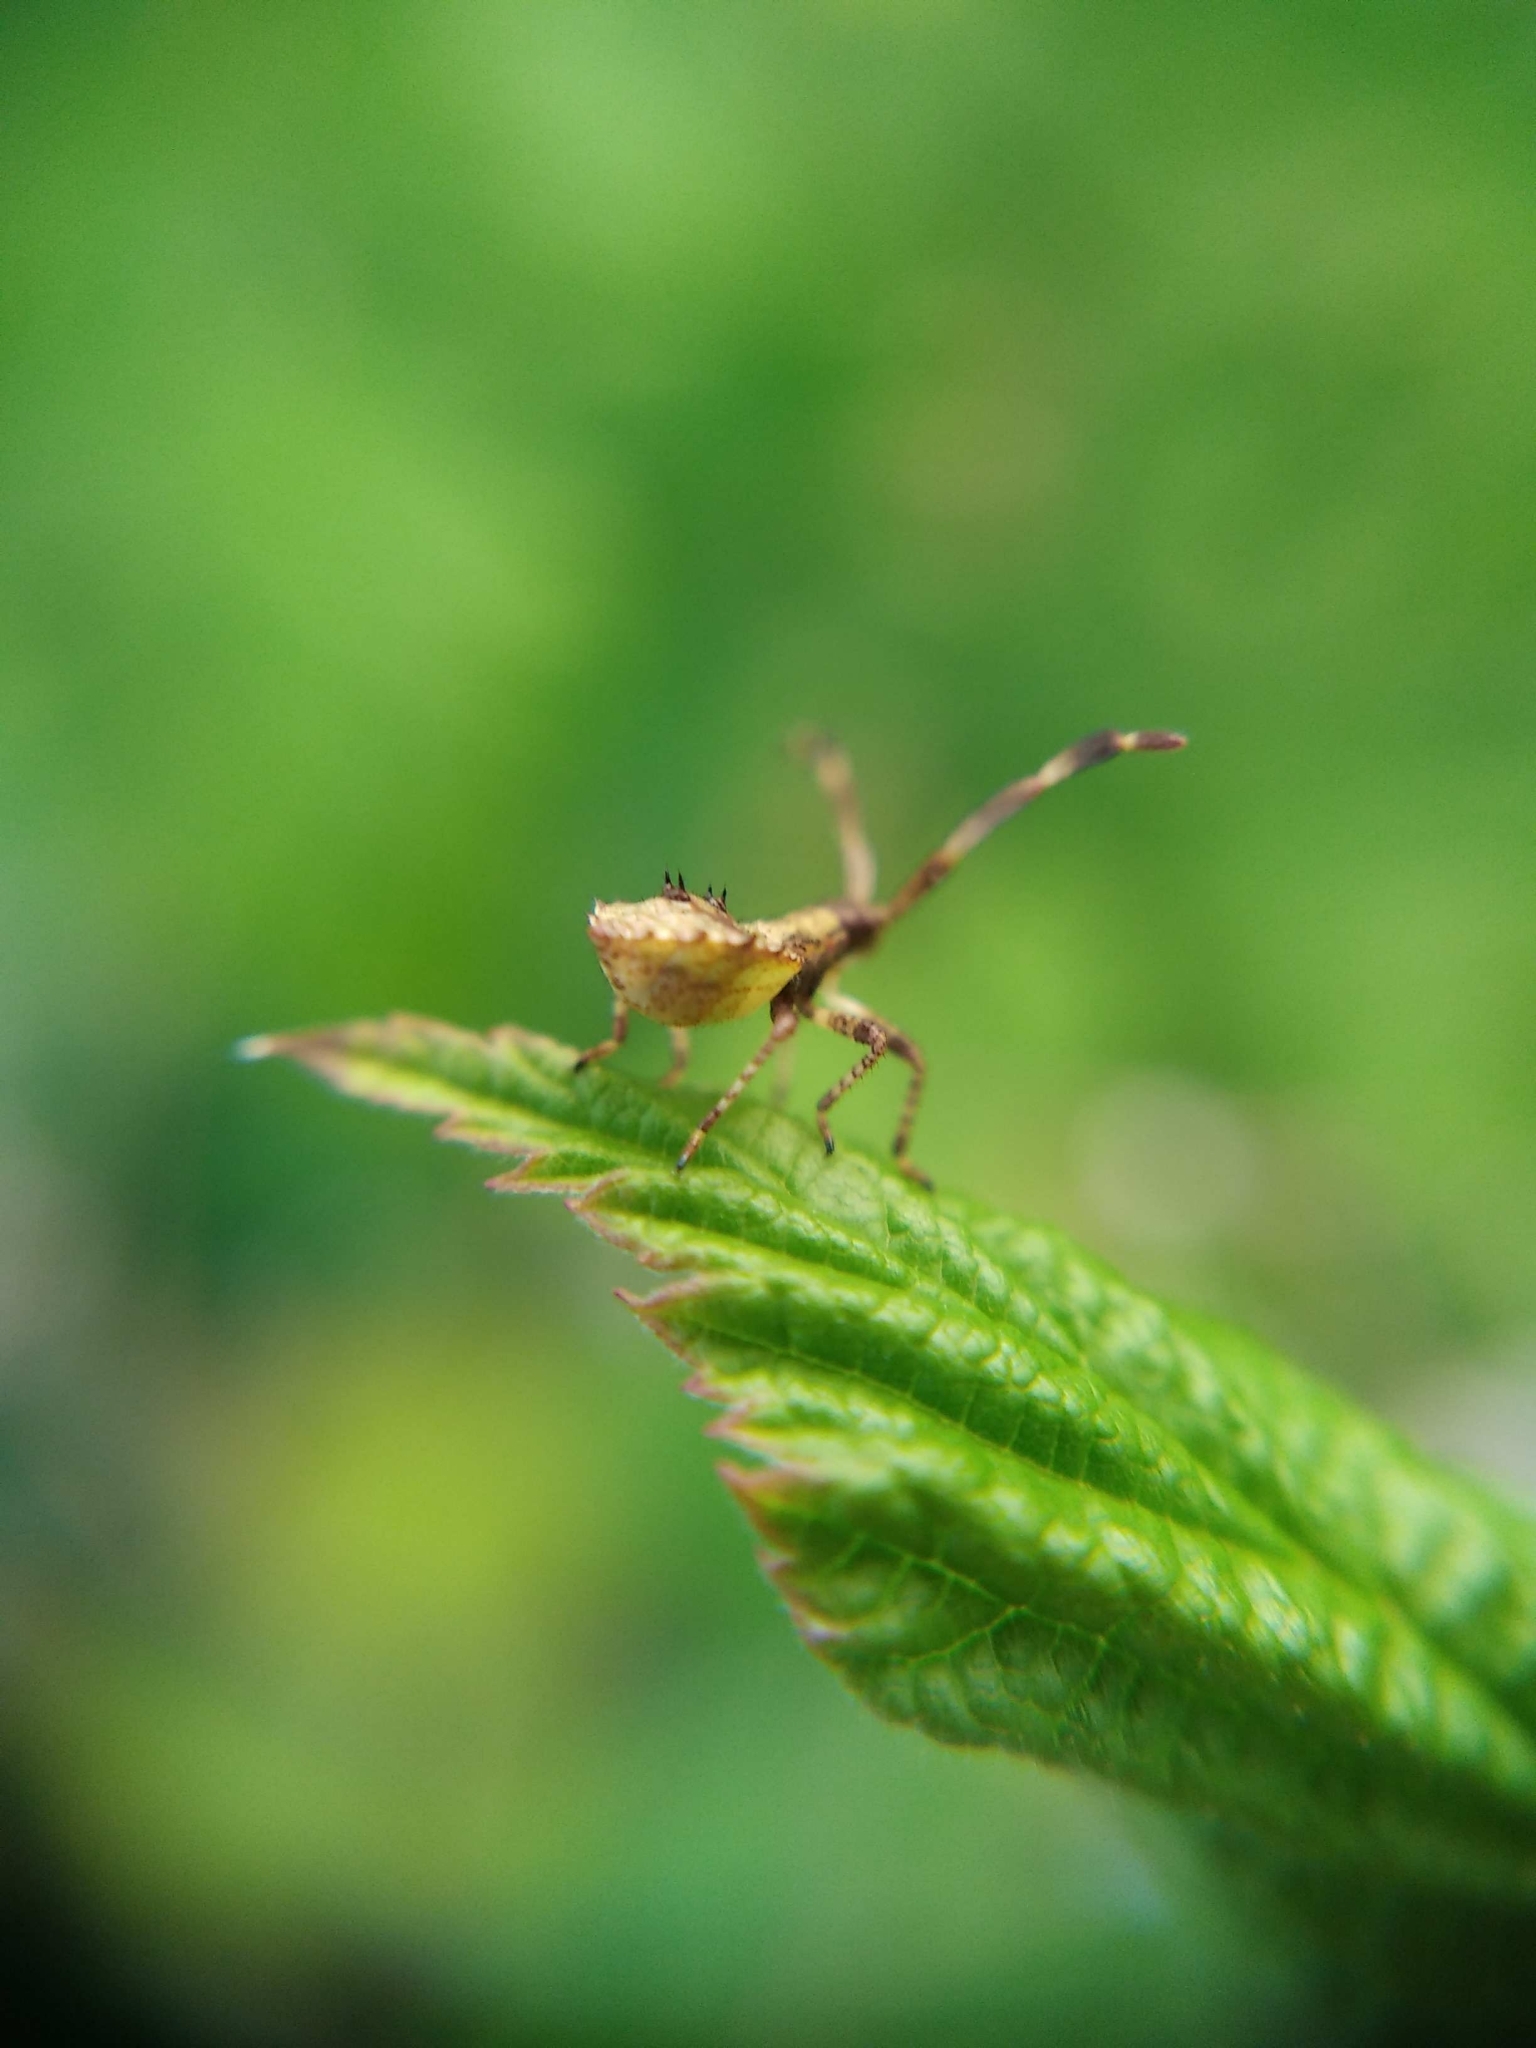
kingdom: Animalia
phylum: Arthropoda
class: Insecta
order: Hemiptera
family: Coreidae
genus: Coreus
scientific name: Coreus marginatus
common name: Dock bug
